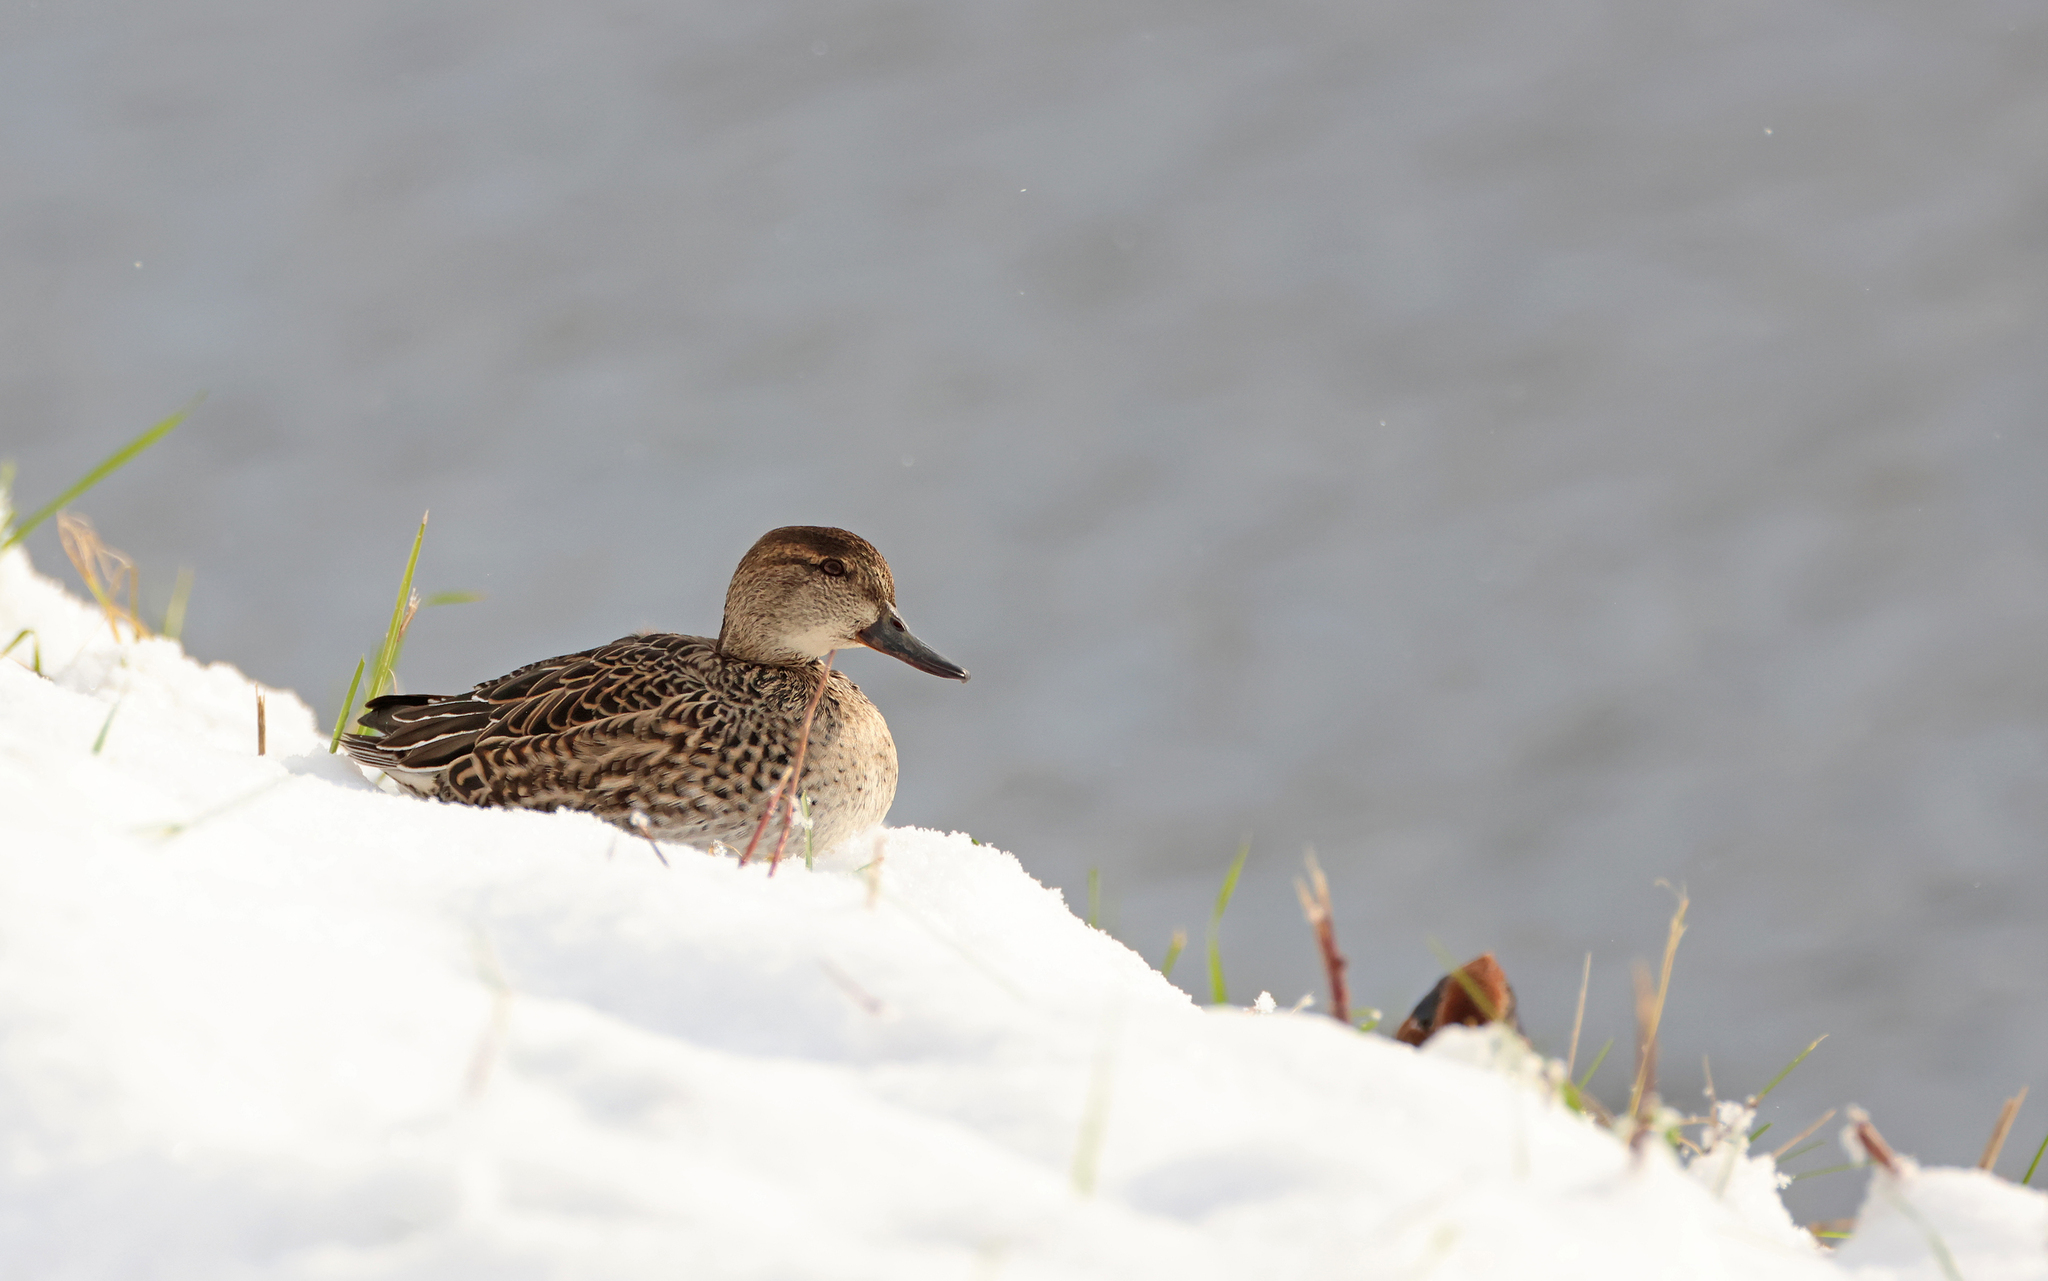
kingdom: Animalia
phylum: Chordata
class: Aves
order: Anseriformes
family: Anatidae
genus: Anas
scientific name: Anas crecca
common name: Eurasian teal
